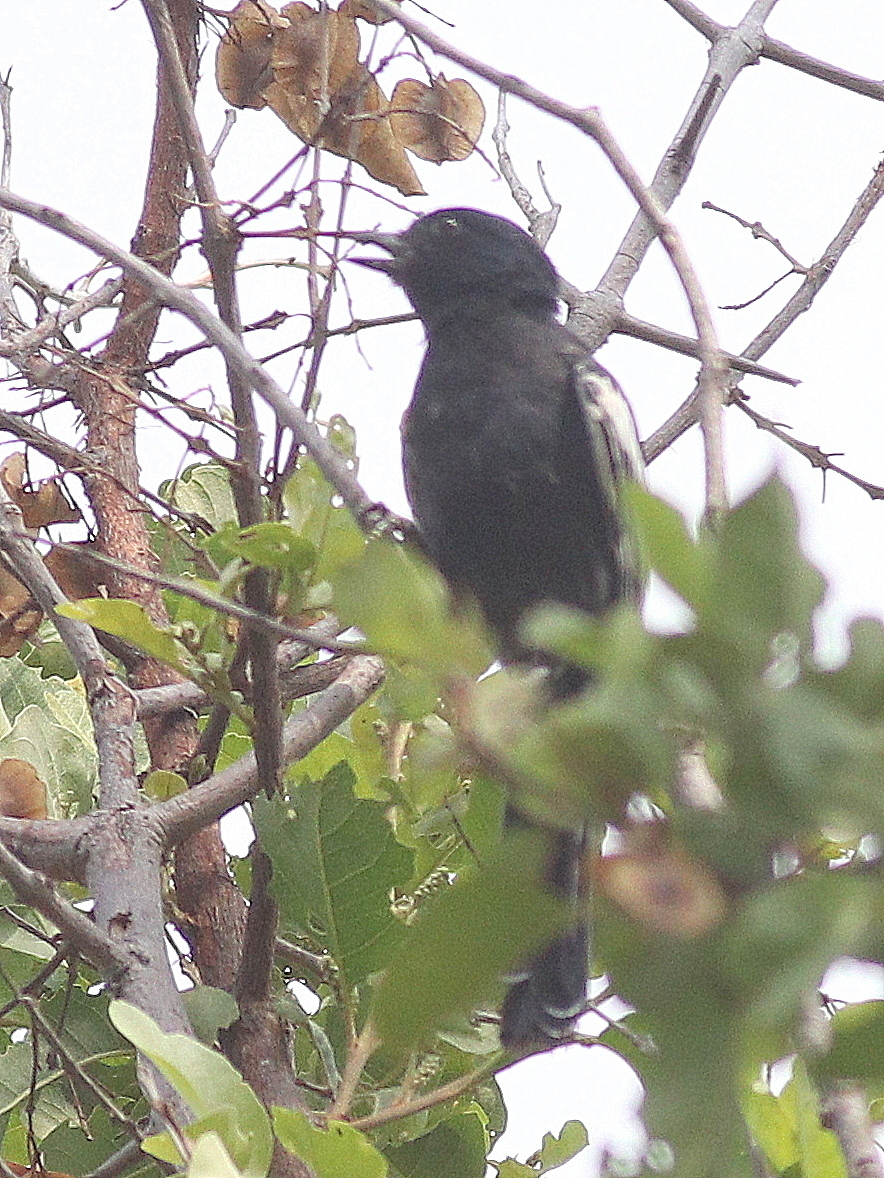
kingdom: Animalia
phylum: Chordata
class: Aves
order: Passeriformes
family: Paridae
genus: Parus
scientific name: Parus niger
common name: Southern black tit
